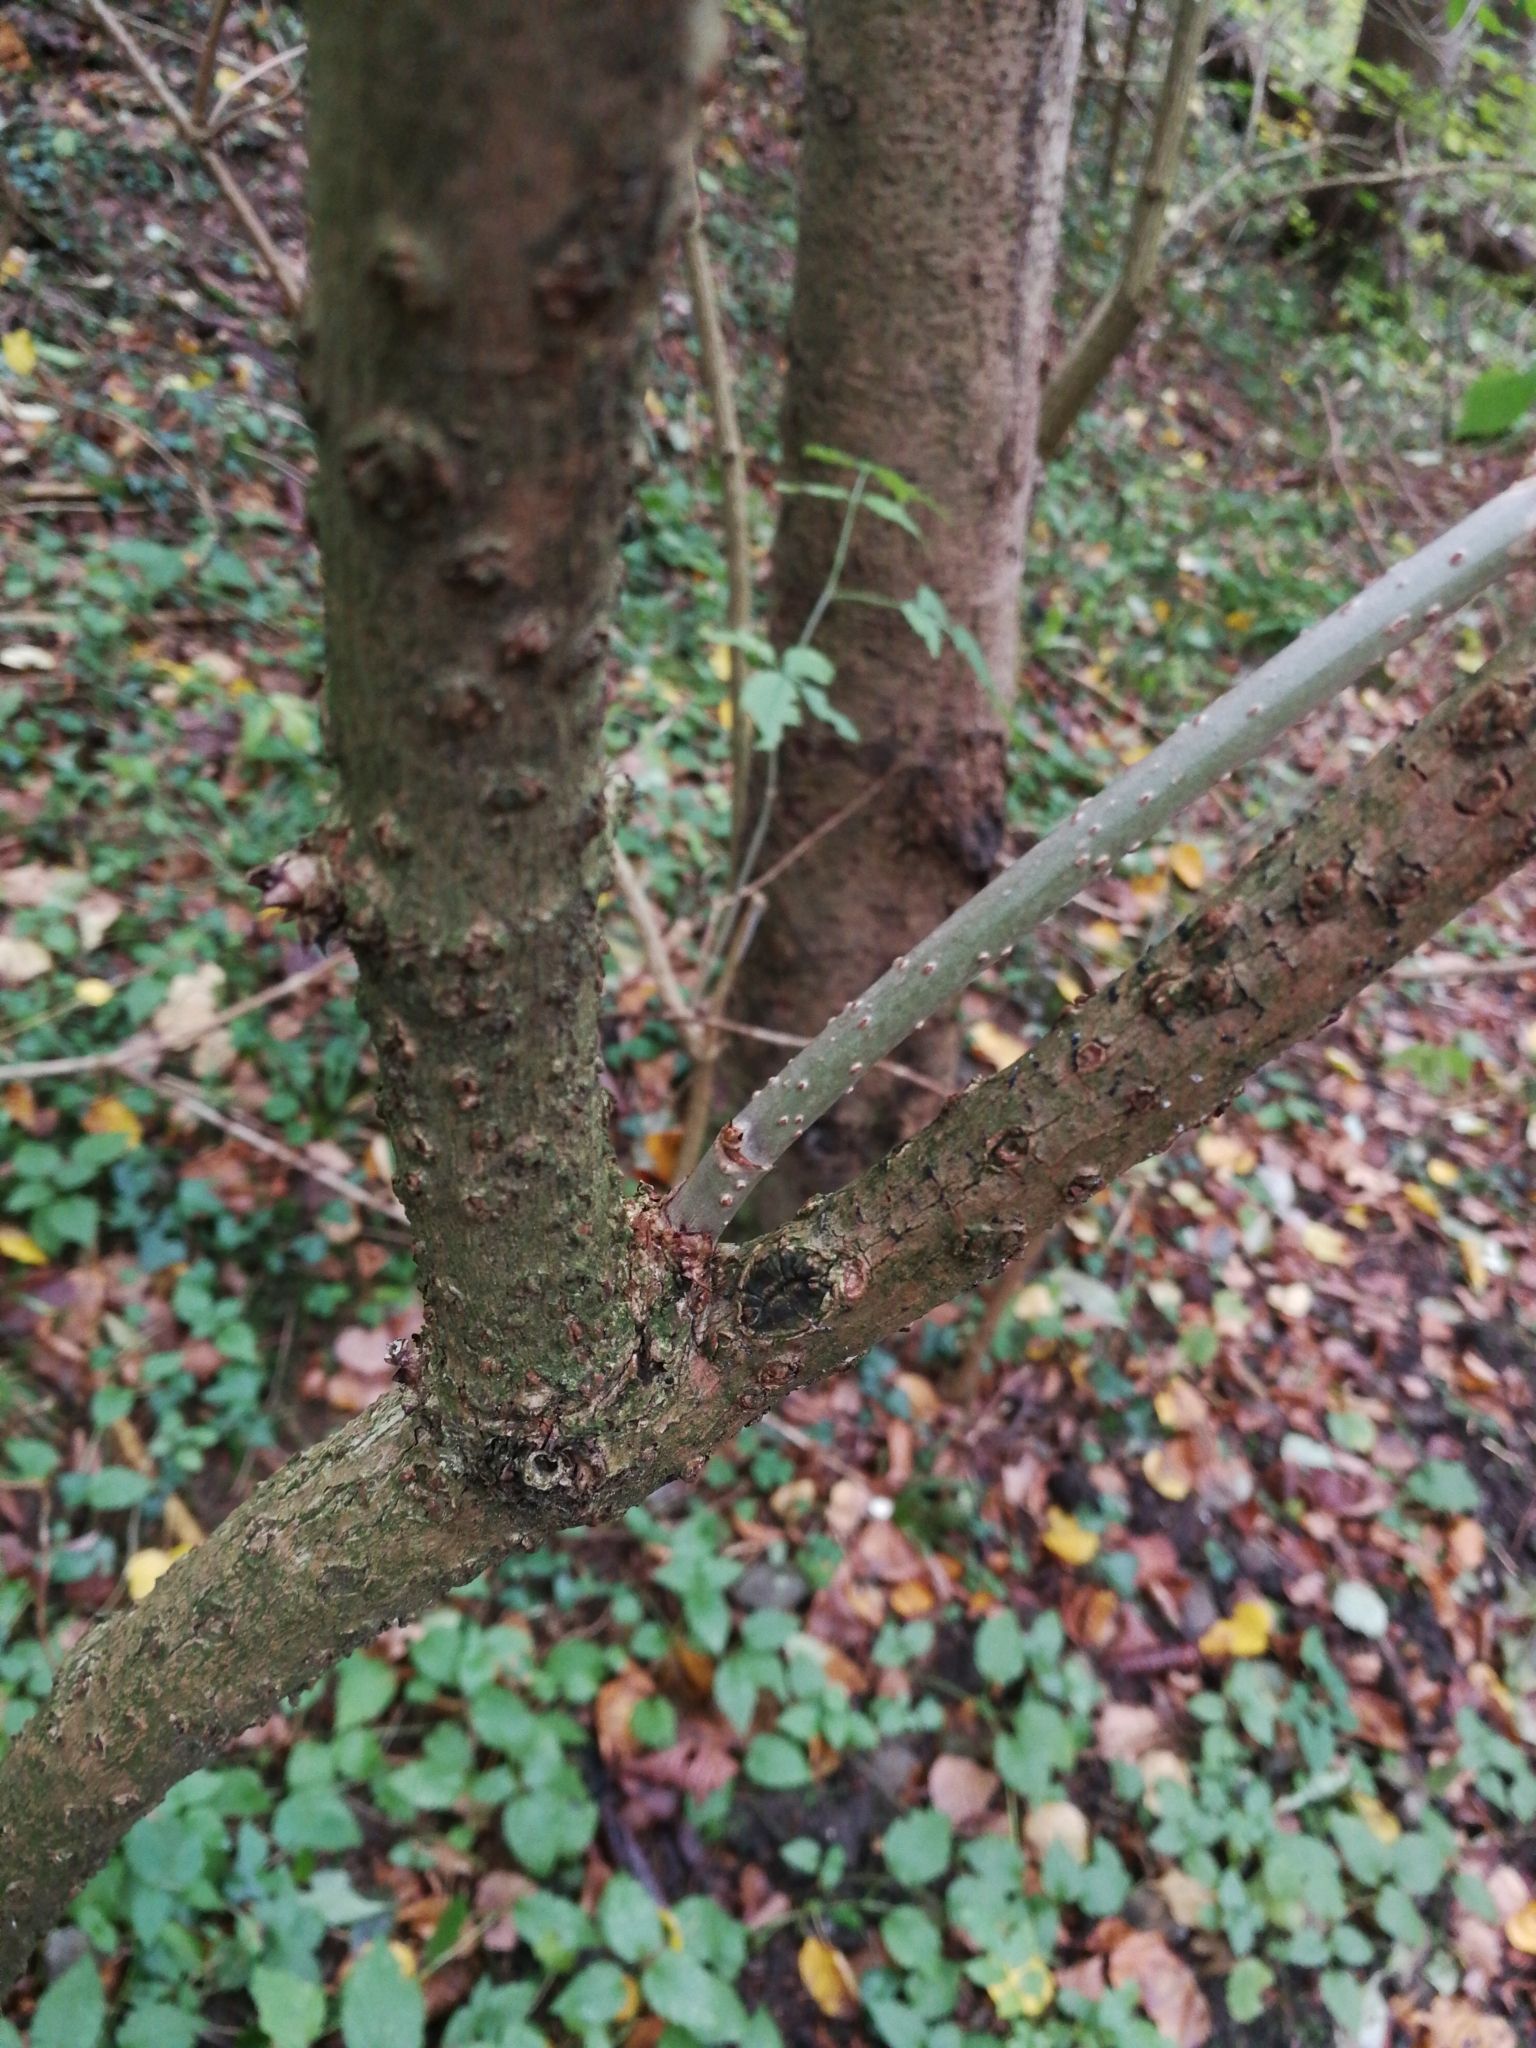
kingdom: Plantae
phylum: Tracheophyta
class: Magnoliopsida
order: Dipsacales
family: Viburnaceae
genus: Sambucus
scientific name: Sambucus nigra
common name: Elder
